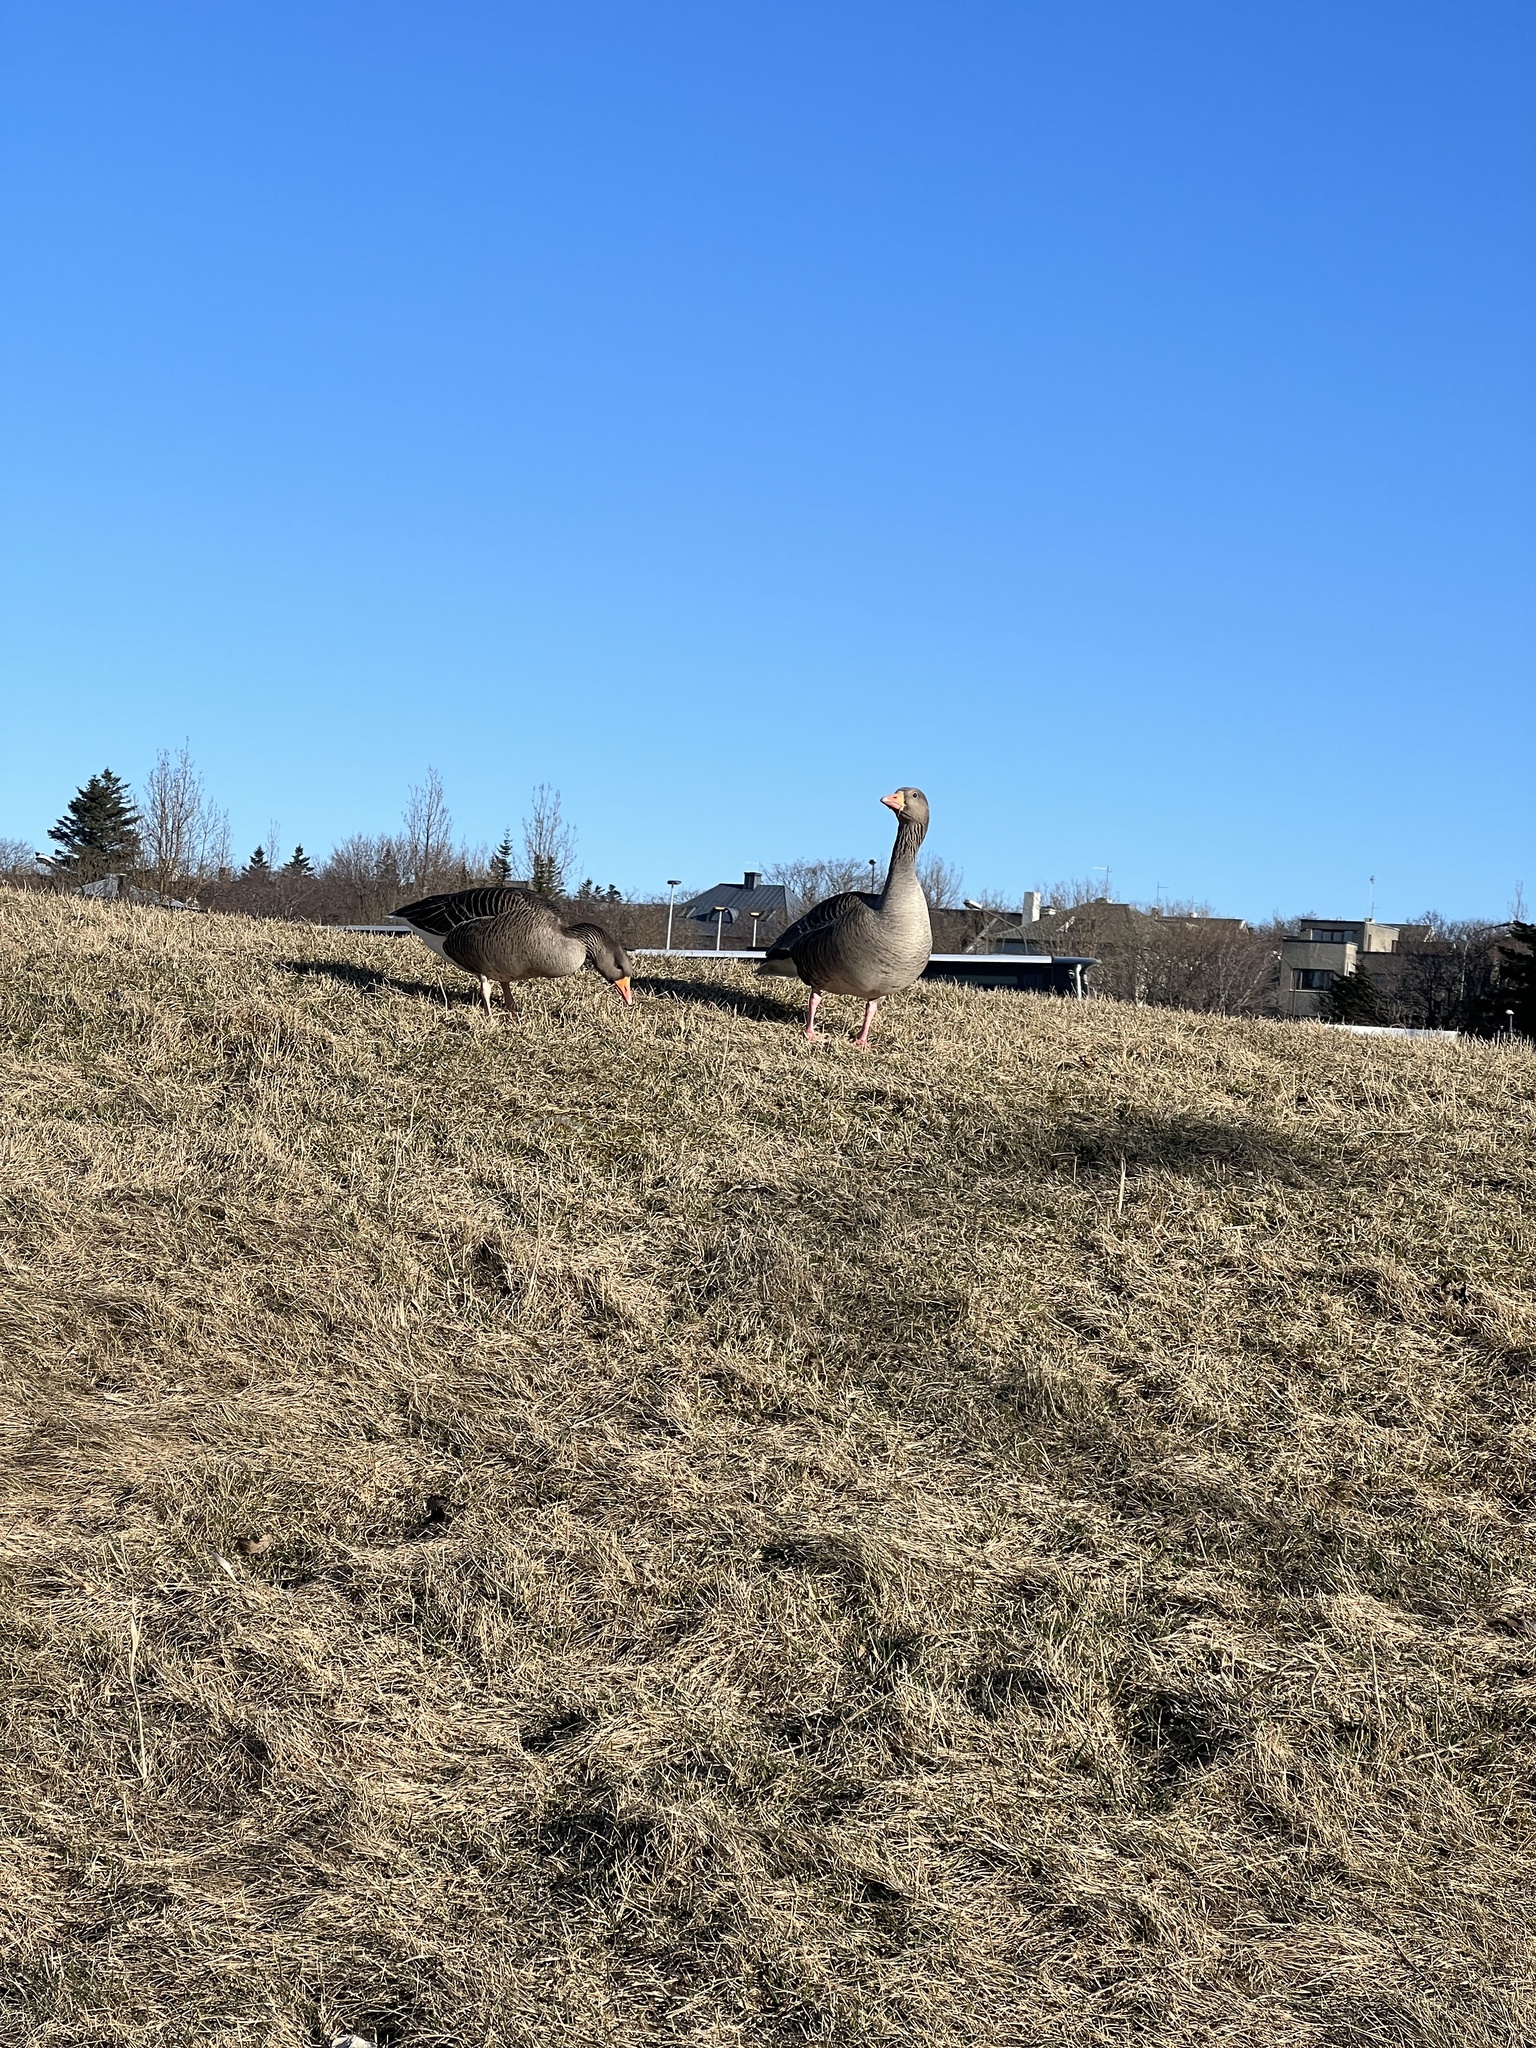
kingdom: Animalia
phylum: Chordata
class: Aves
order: Anseriformes
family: Anatidae
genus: Anser
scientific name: Anser anser
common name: Greylag goose
